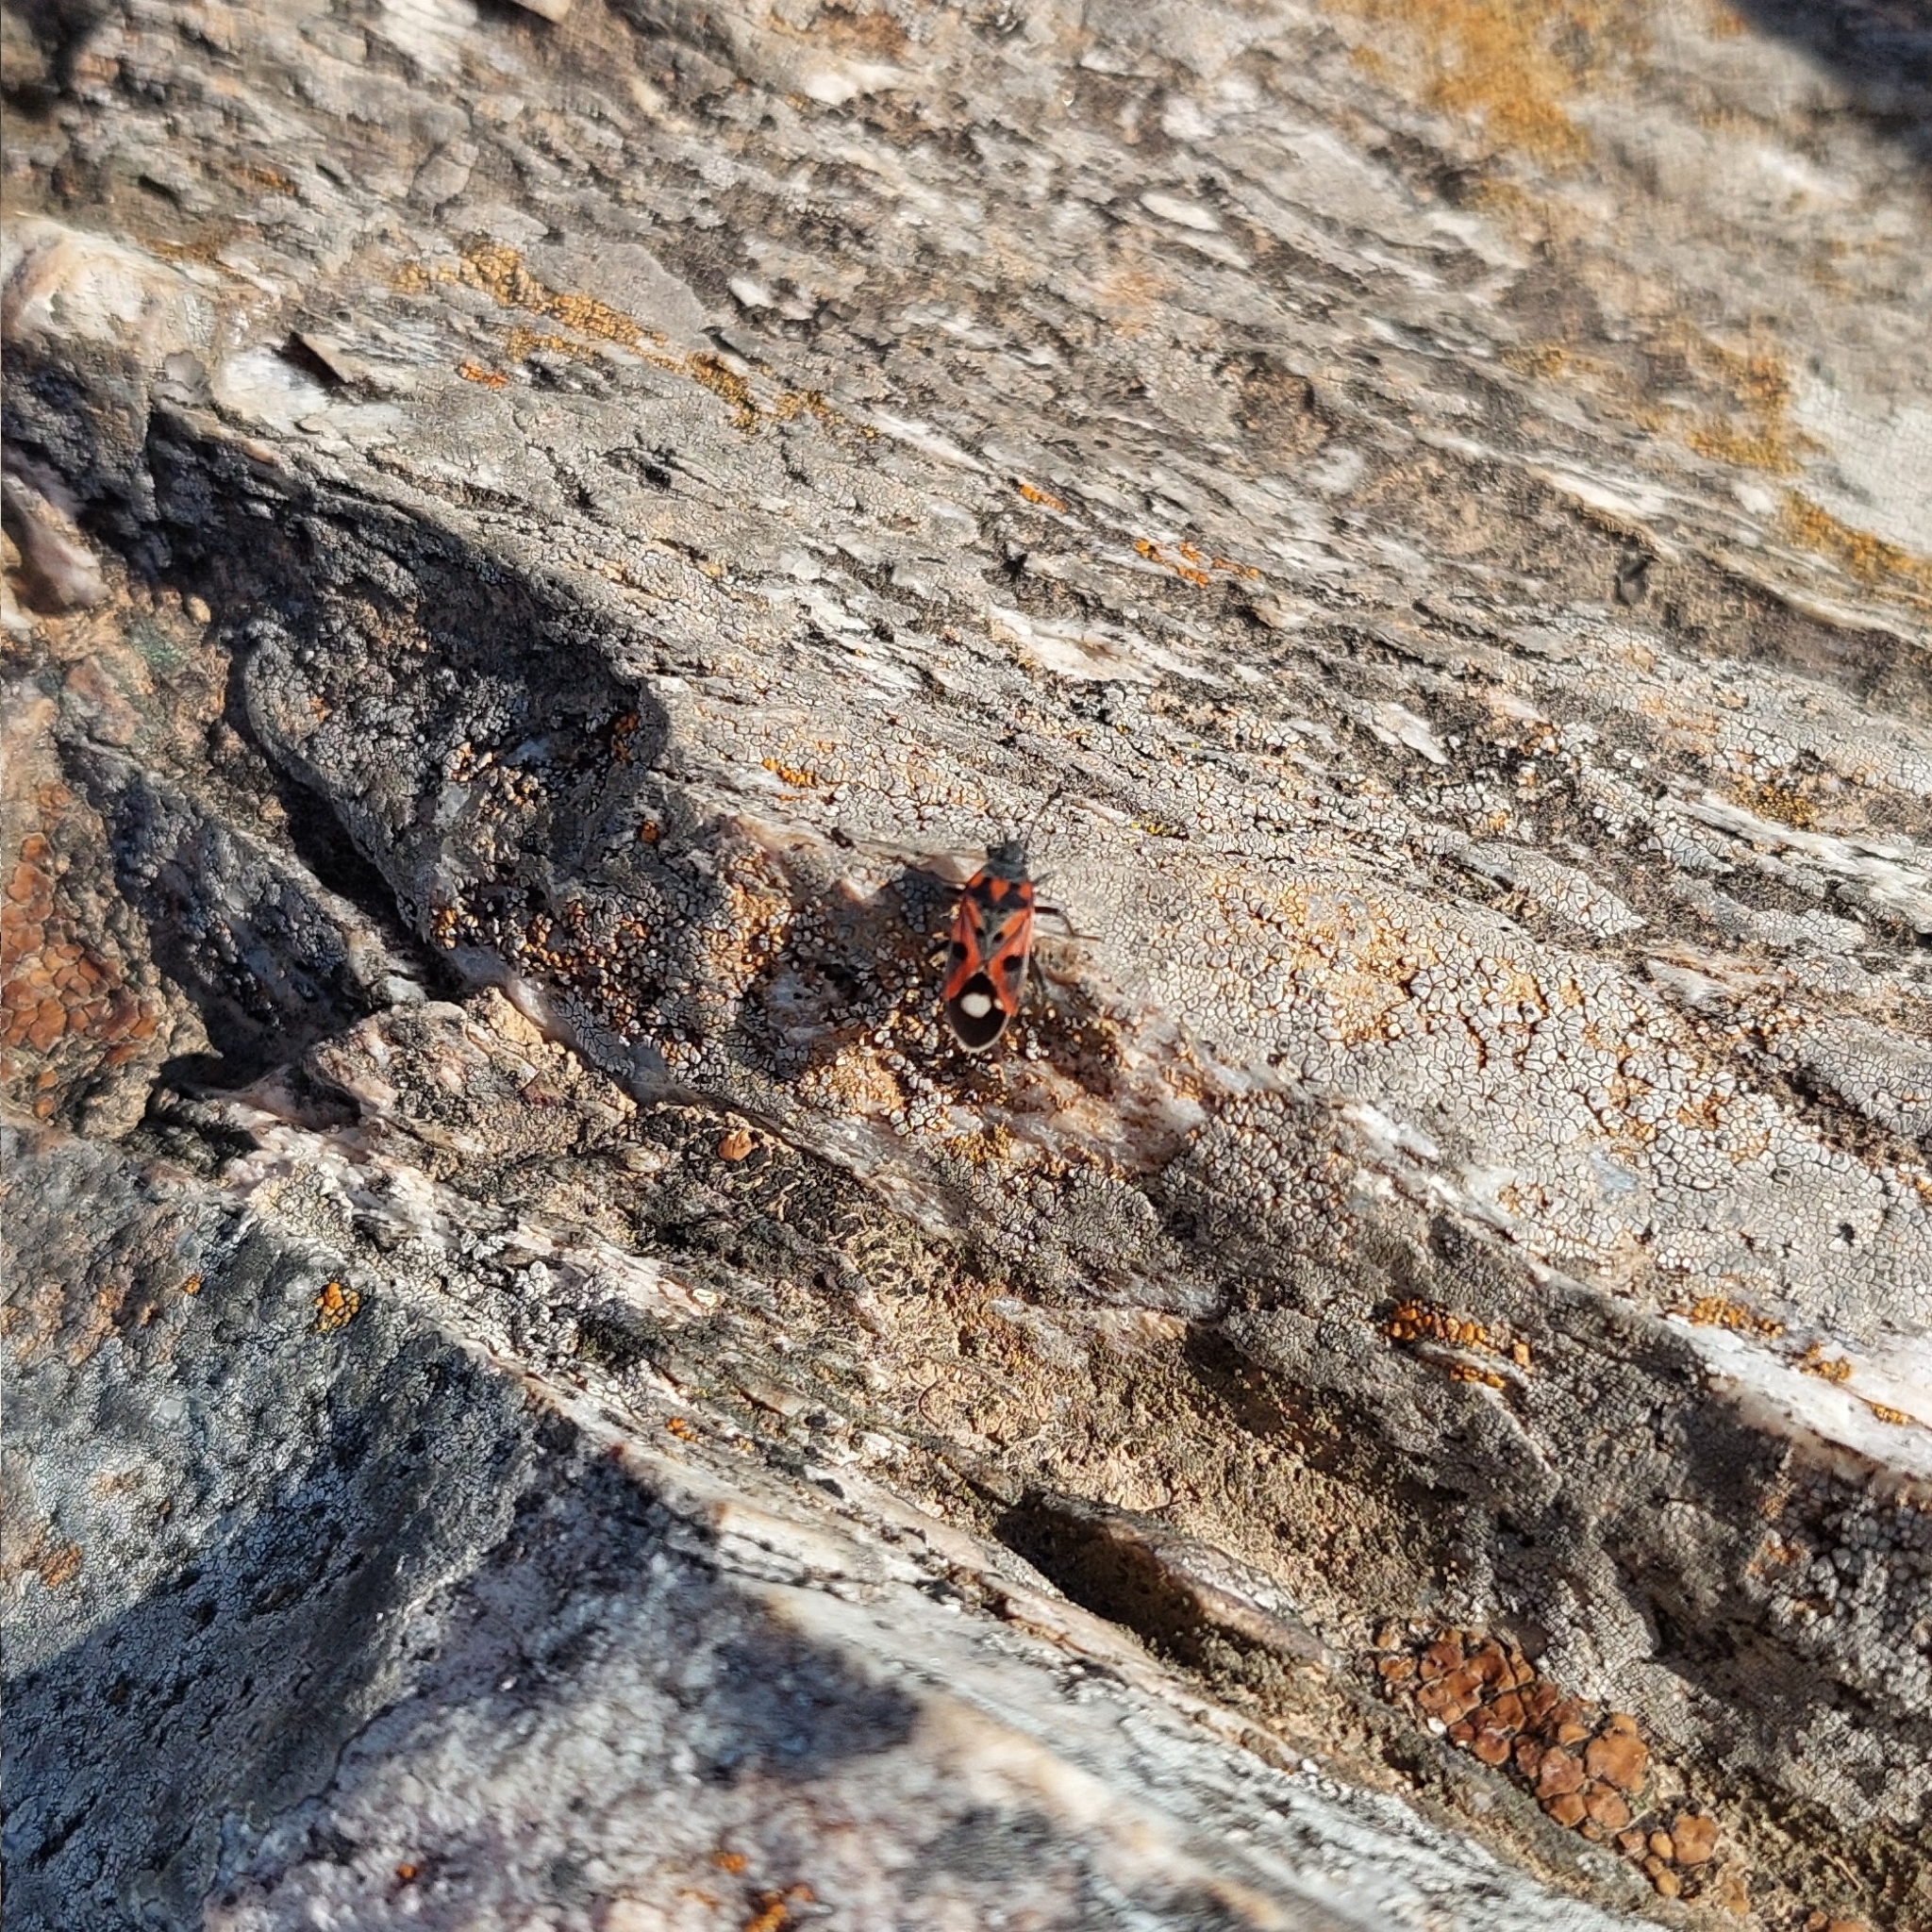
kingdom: Animalia
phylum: Arthropoda
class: Insecta
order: Hemiptera
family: Lygaeidae
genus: Lygaeus
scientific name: Lygaeus alboornatus
